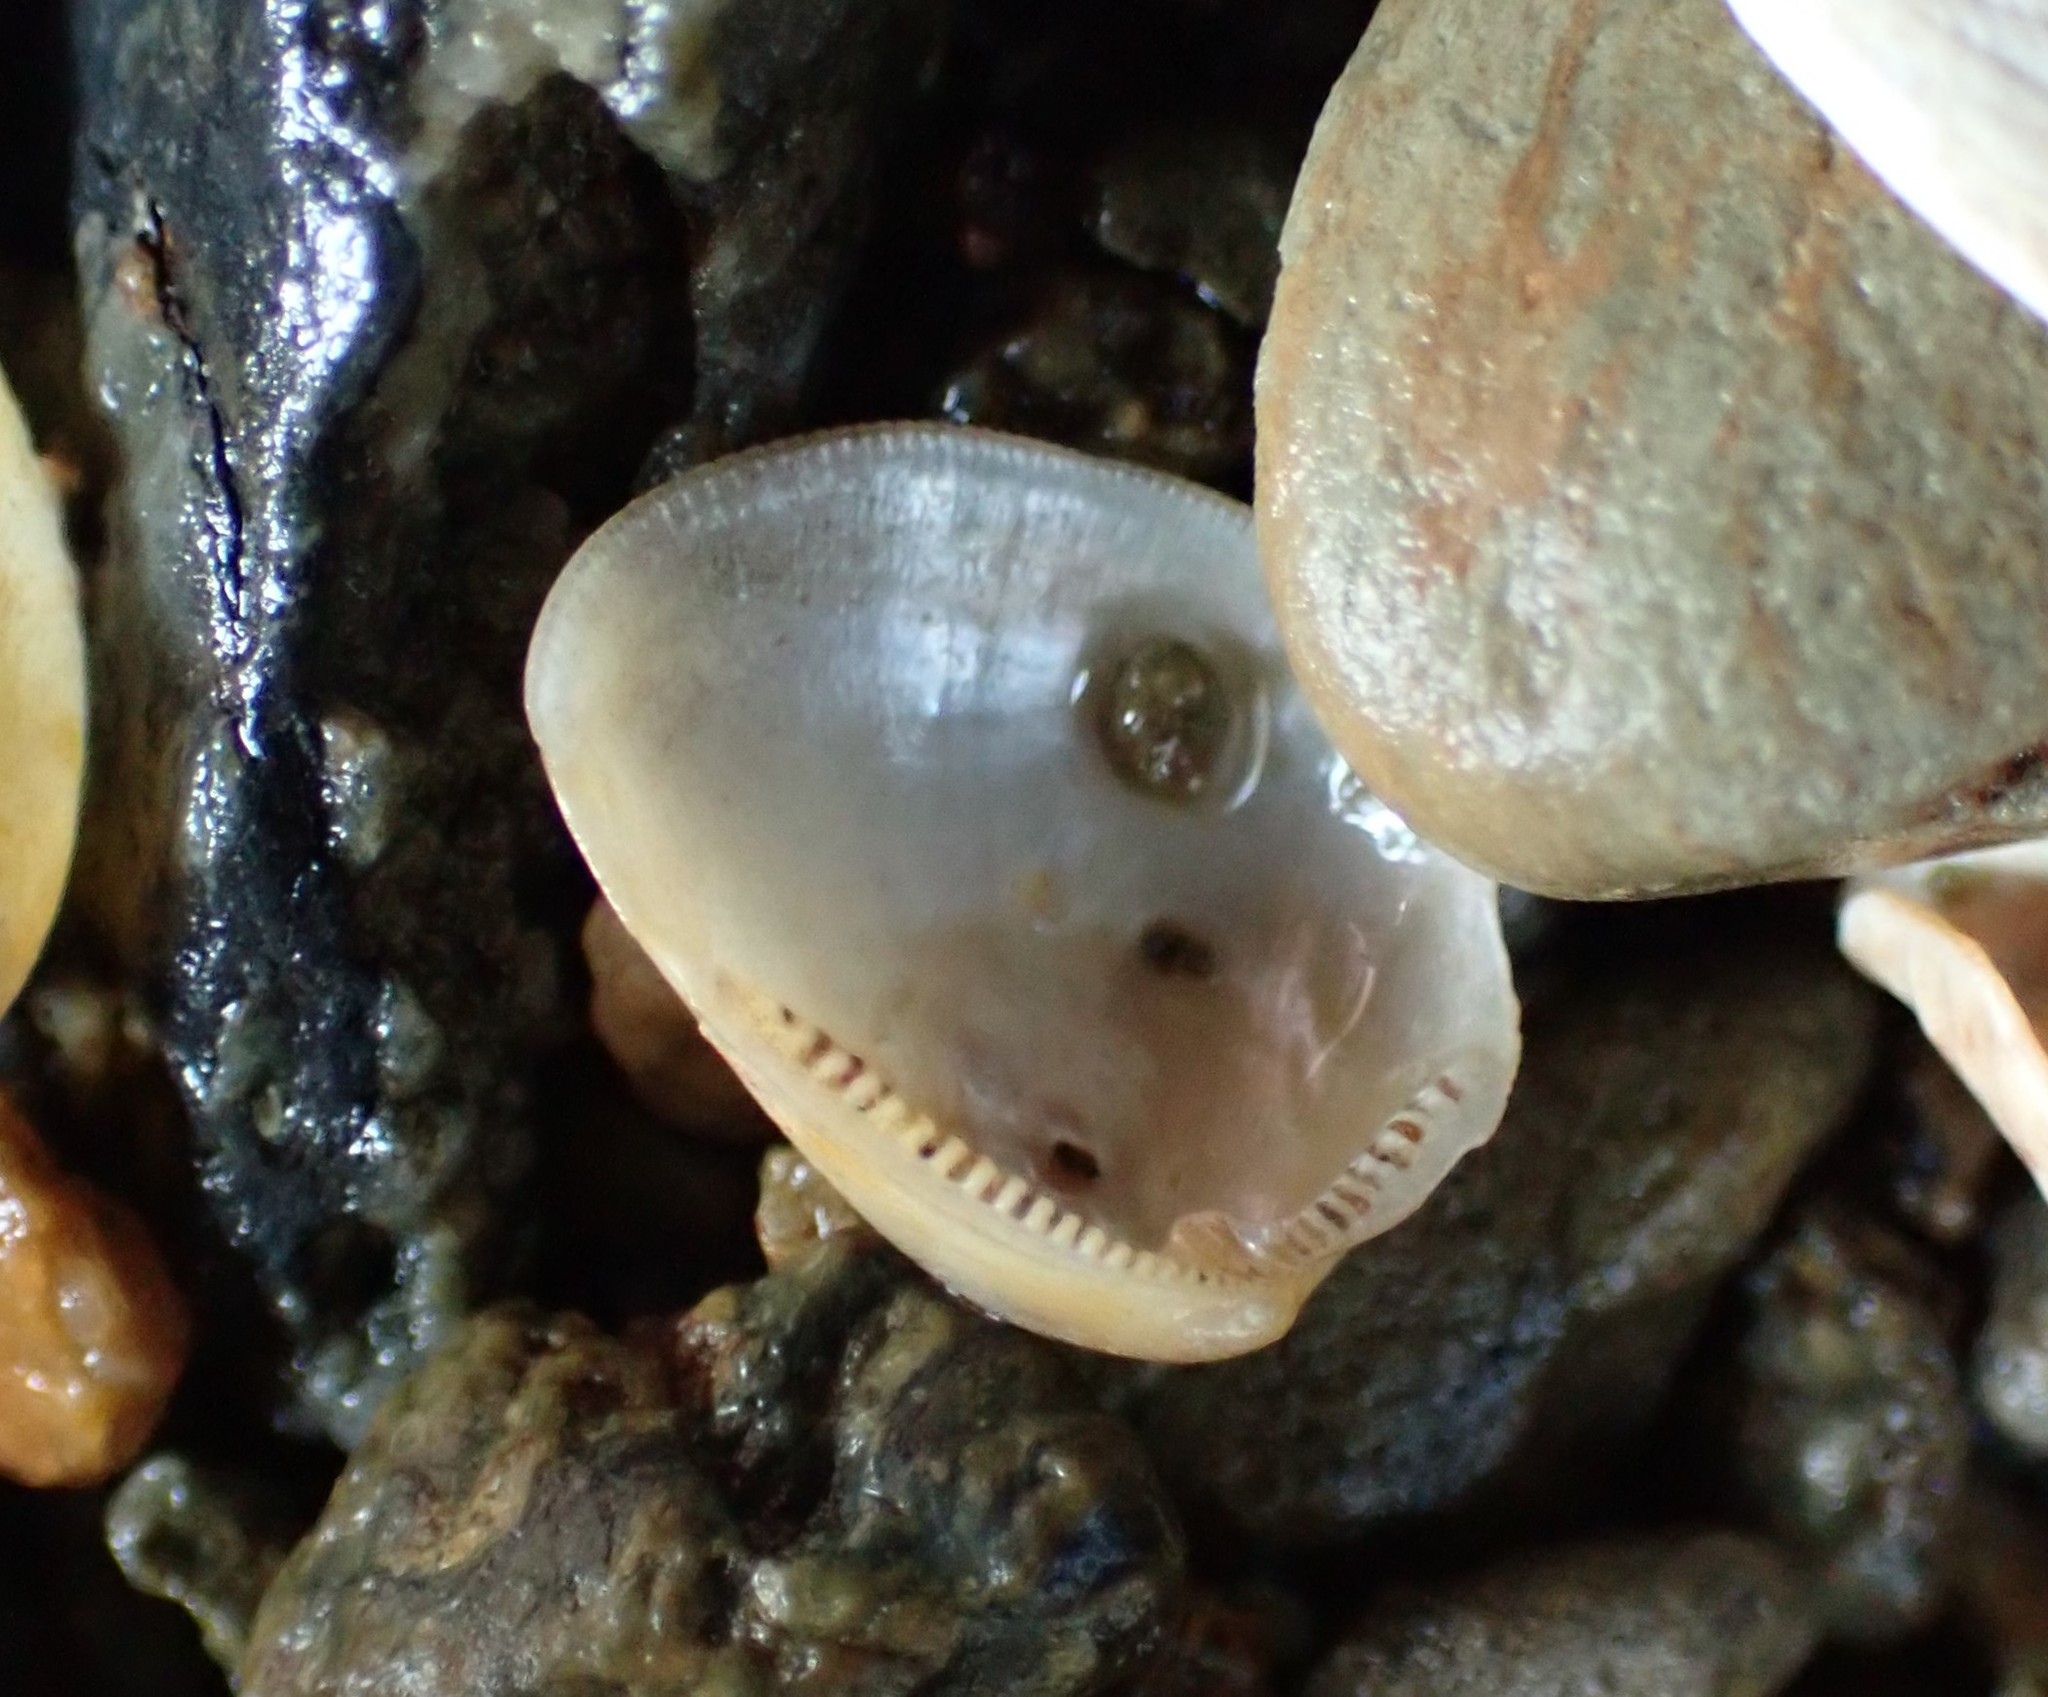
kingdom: Animalia
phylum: Mollusca
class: Bivalvia
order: Nuculida
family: Nuculidae
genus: Linucula
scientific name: Linucula hartvigiana
